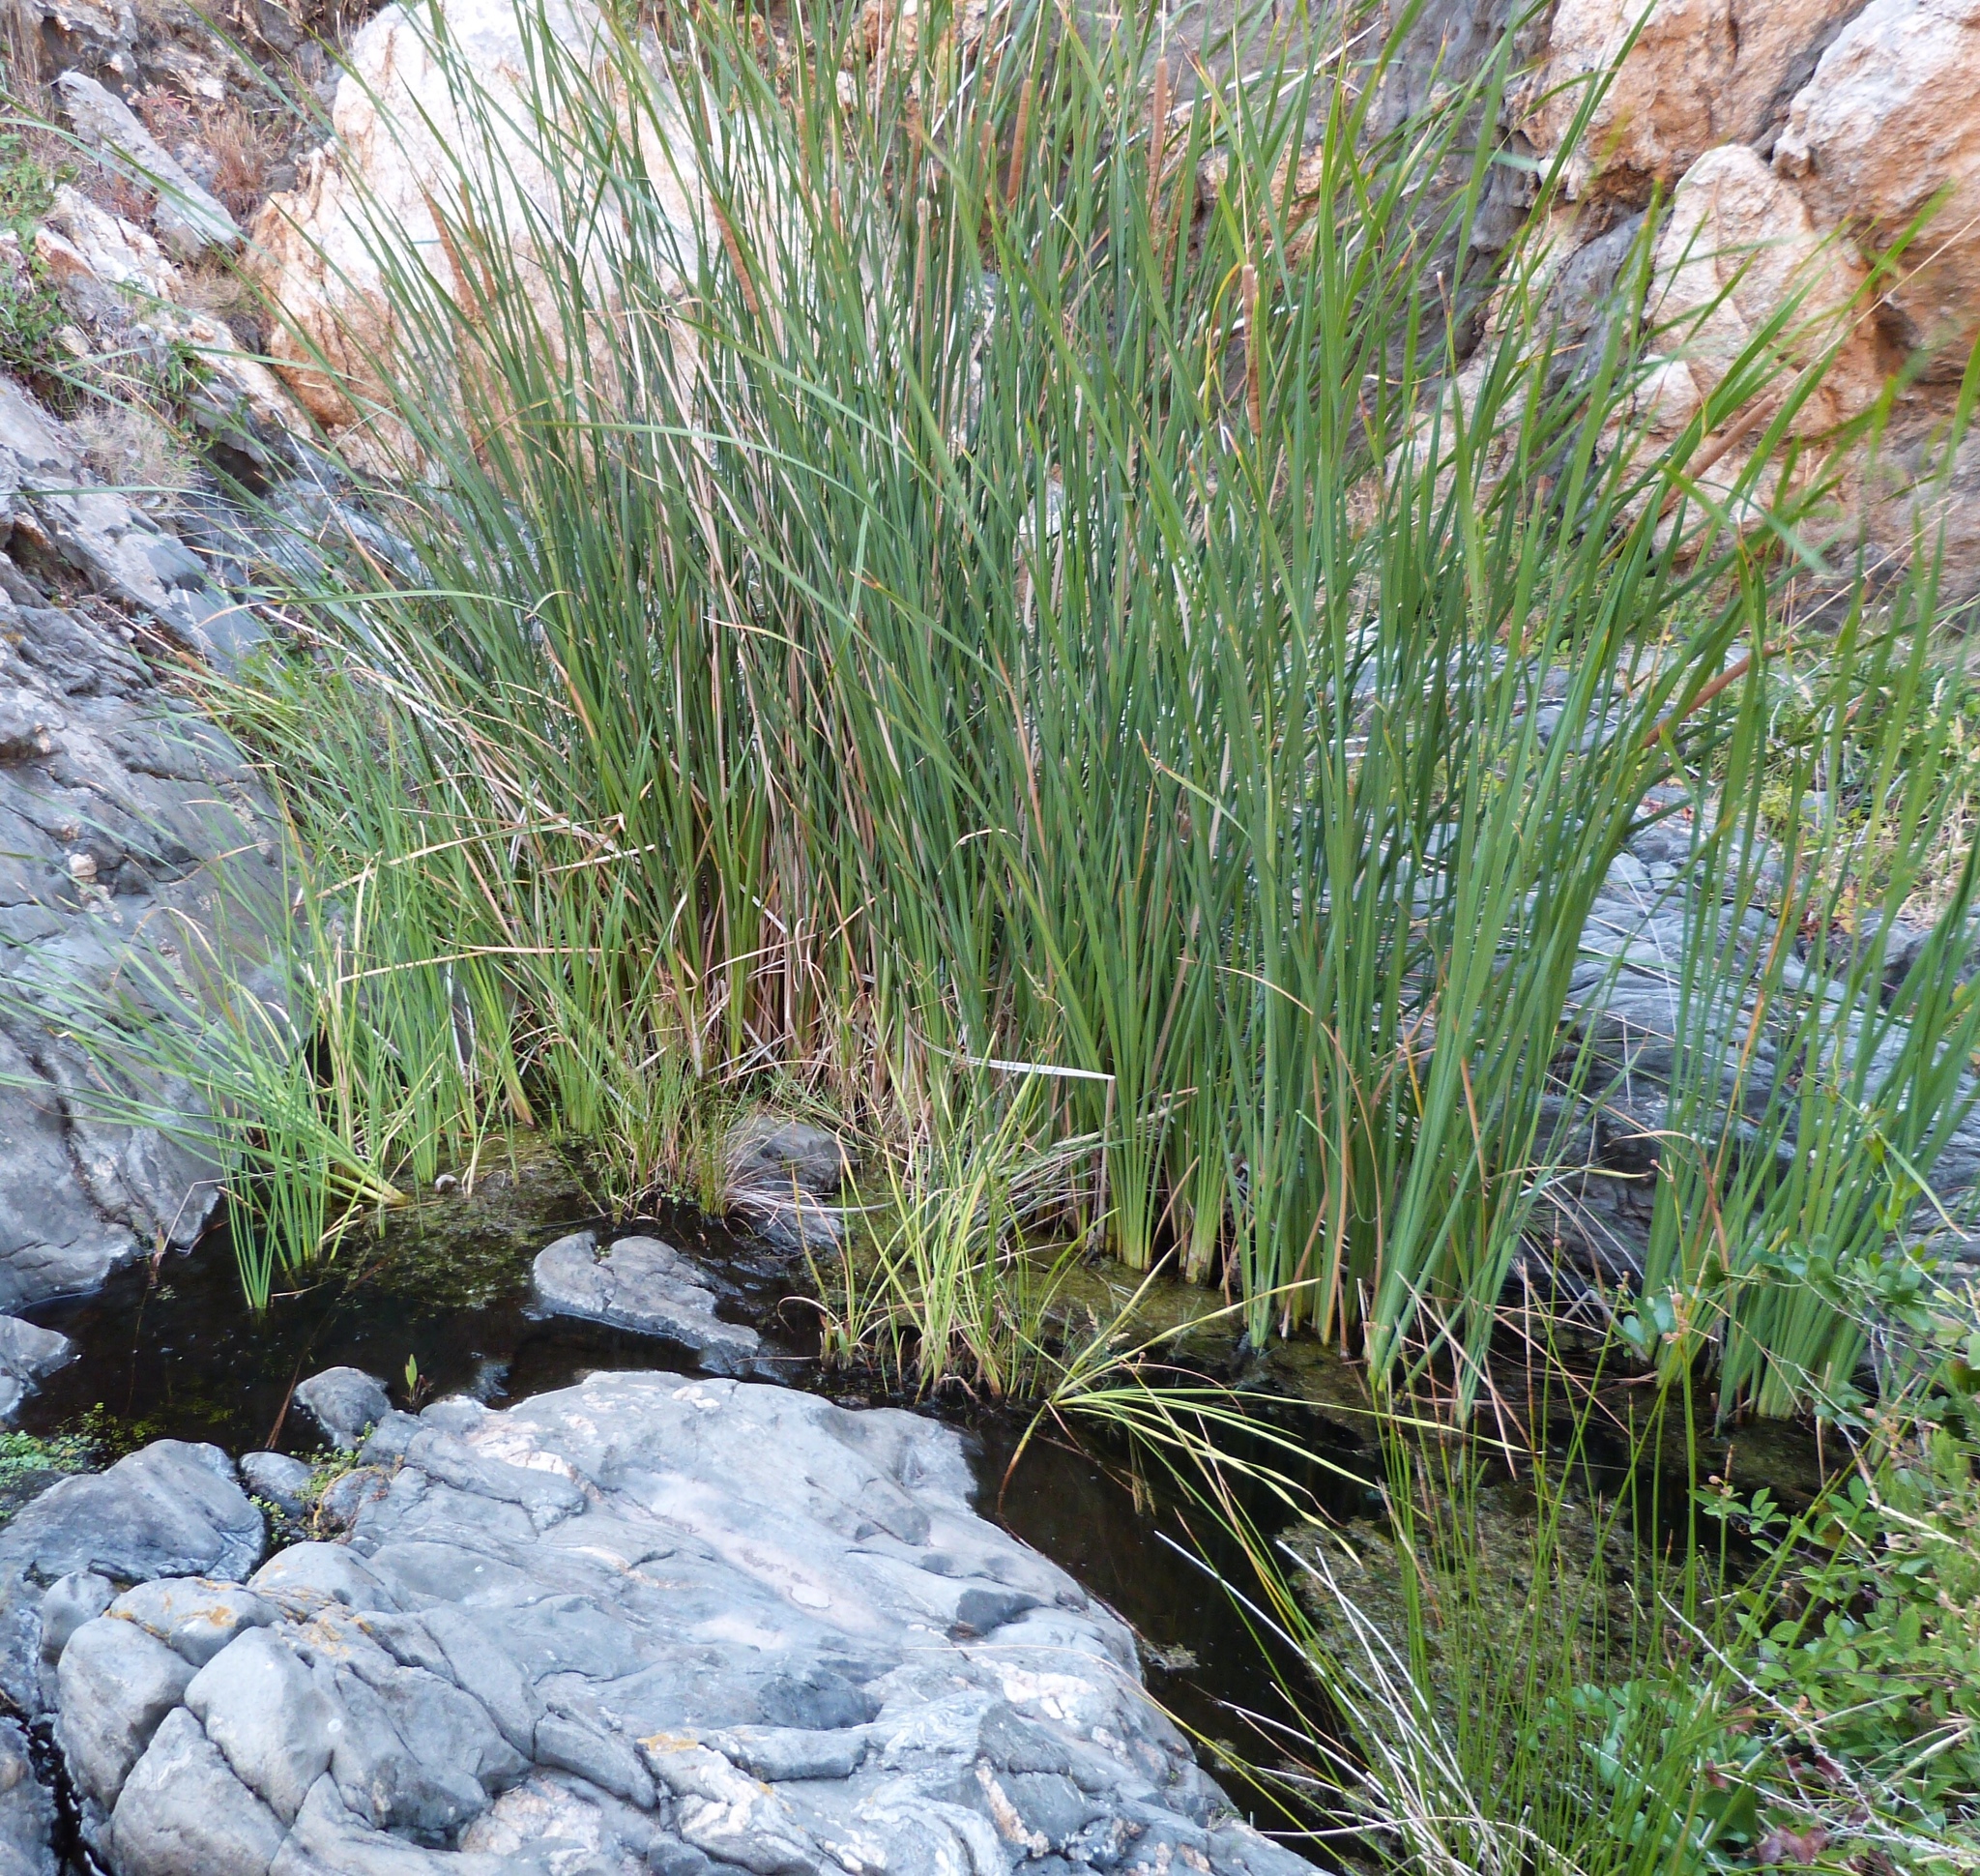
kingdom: Plantae
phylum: Tracheophyta
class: Liliopsida
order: Poales
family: Typhaceae
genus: Typha
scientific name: Typha domingensis
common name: Southern cattail
